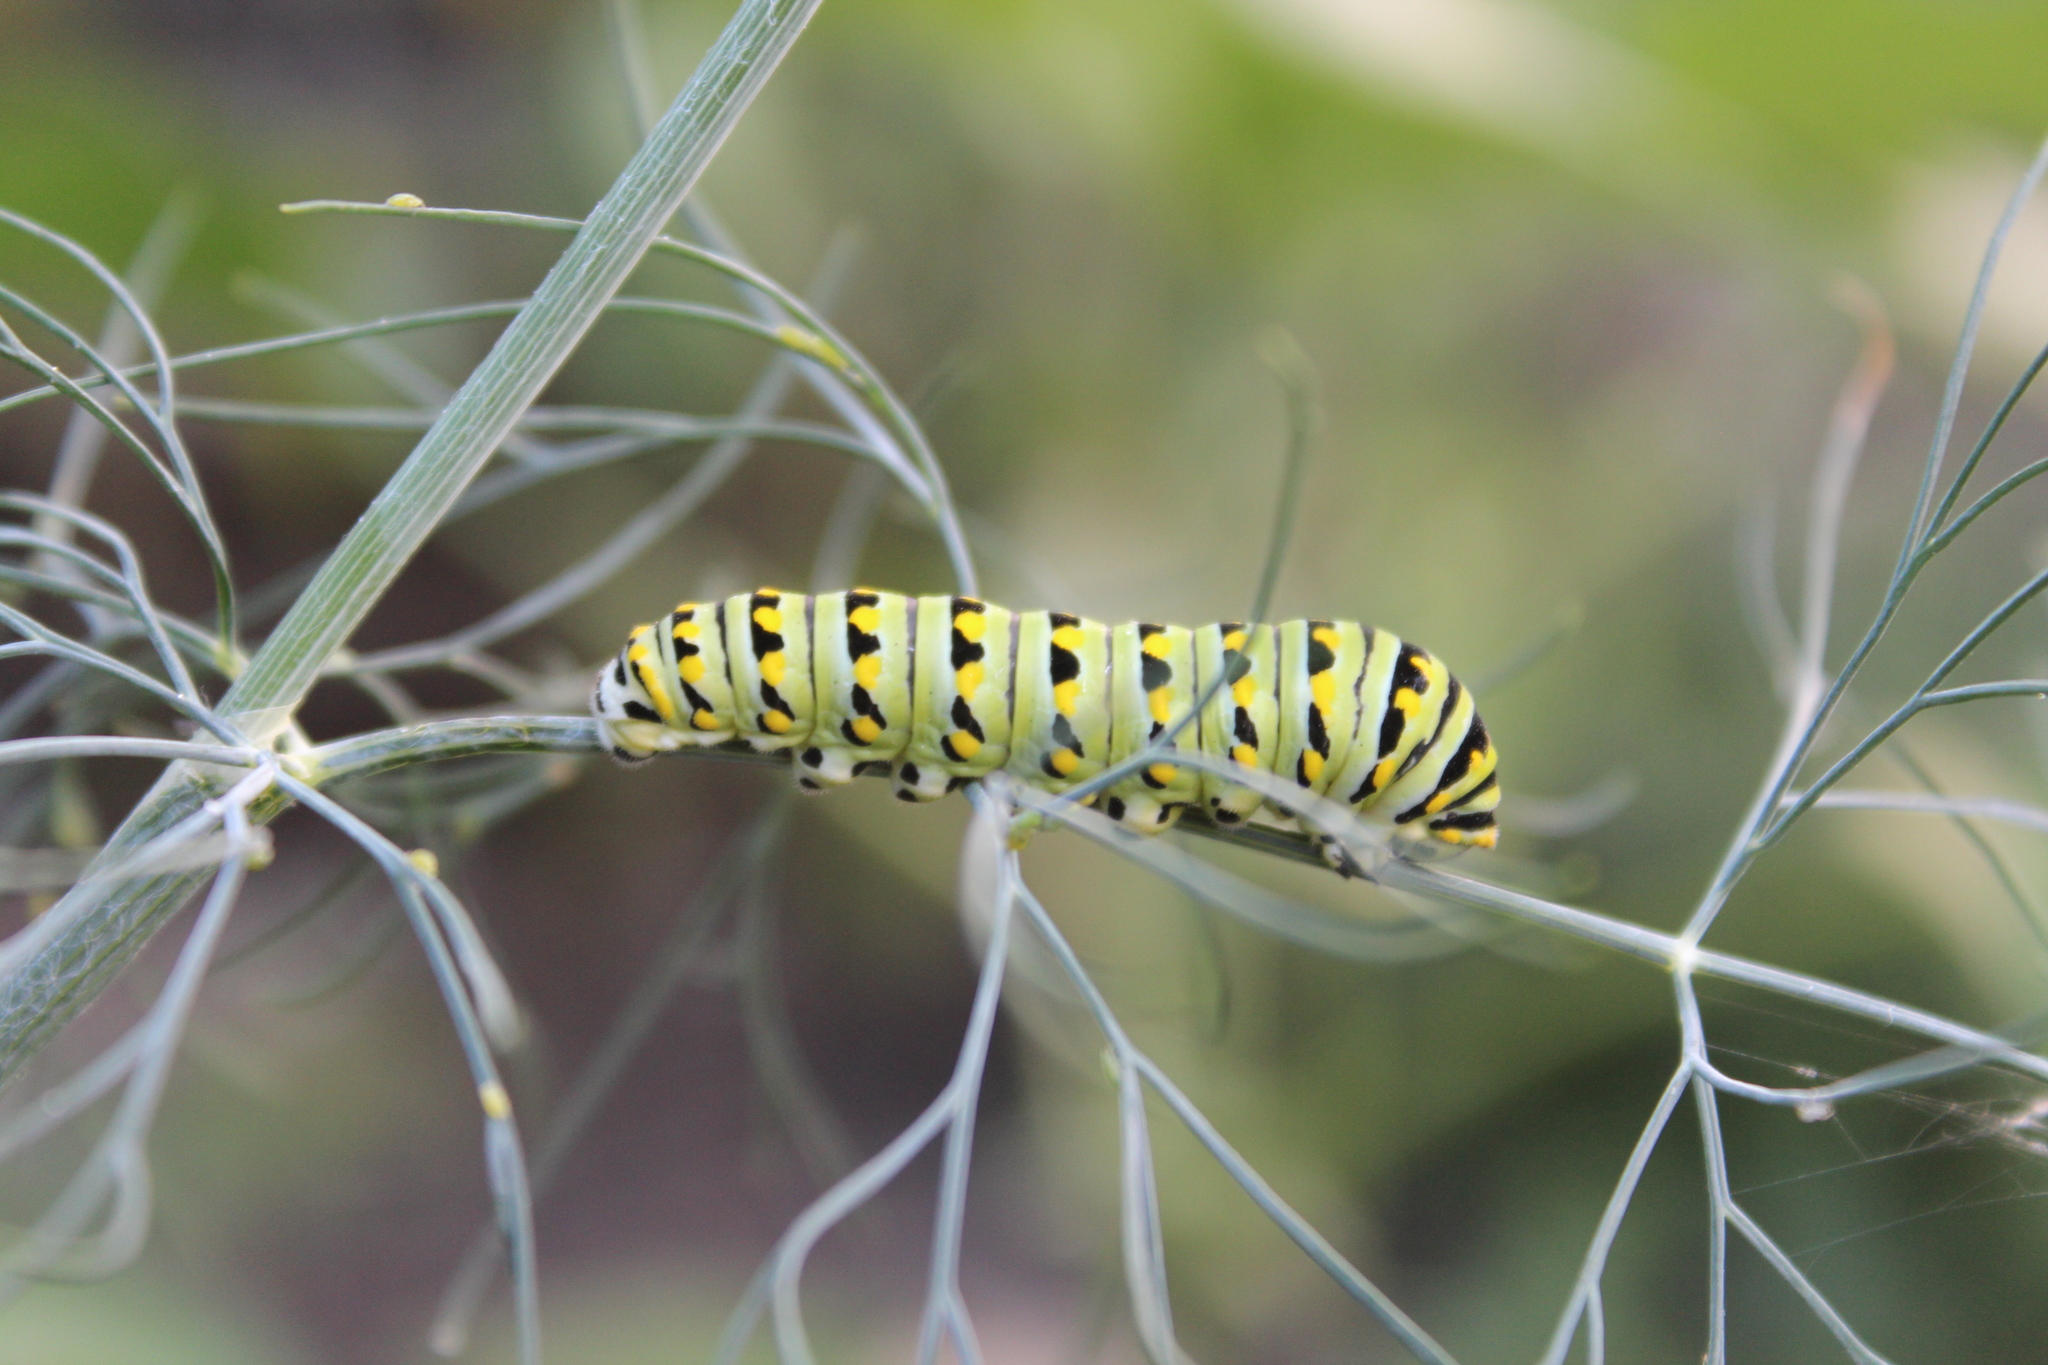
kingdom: Animalia
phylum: Arthropoda
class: Insecta
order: Lepidoptera
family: Papilionidae
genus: Papilio
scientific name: Papilio polyxenes
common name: Black swallowtail
